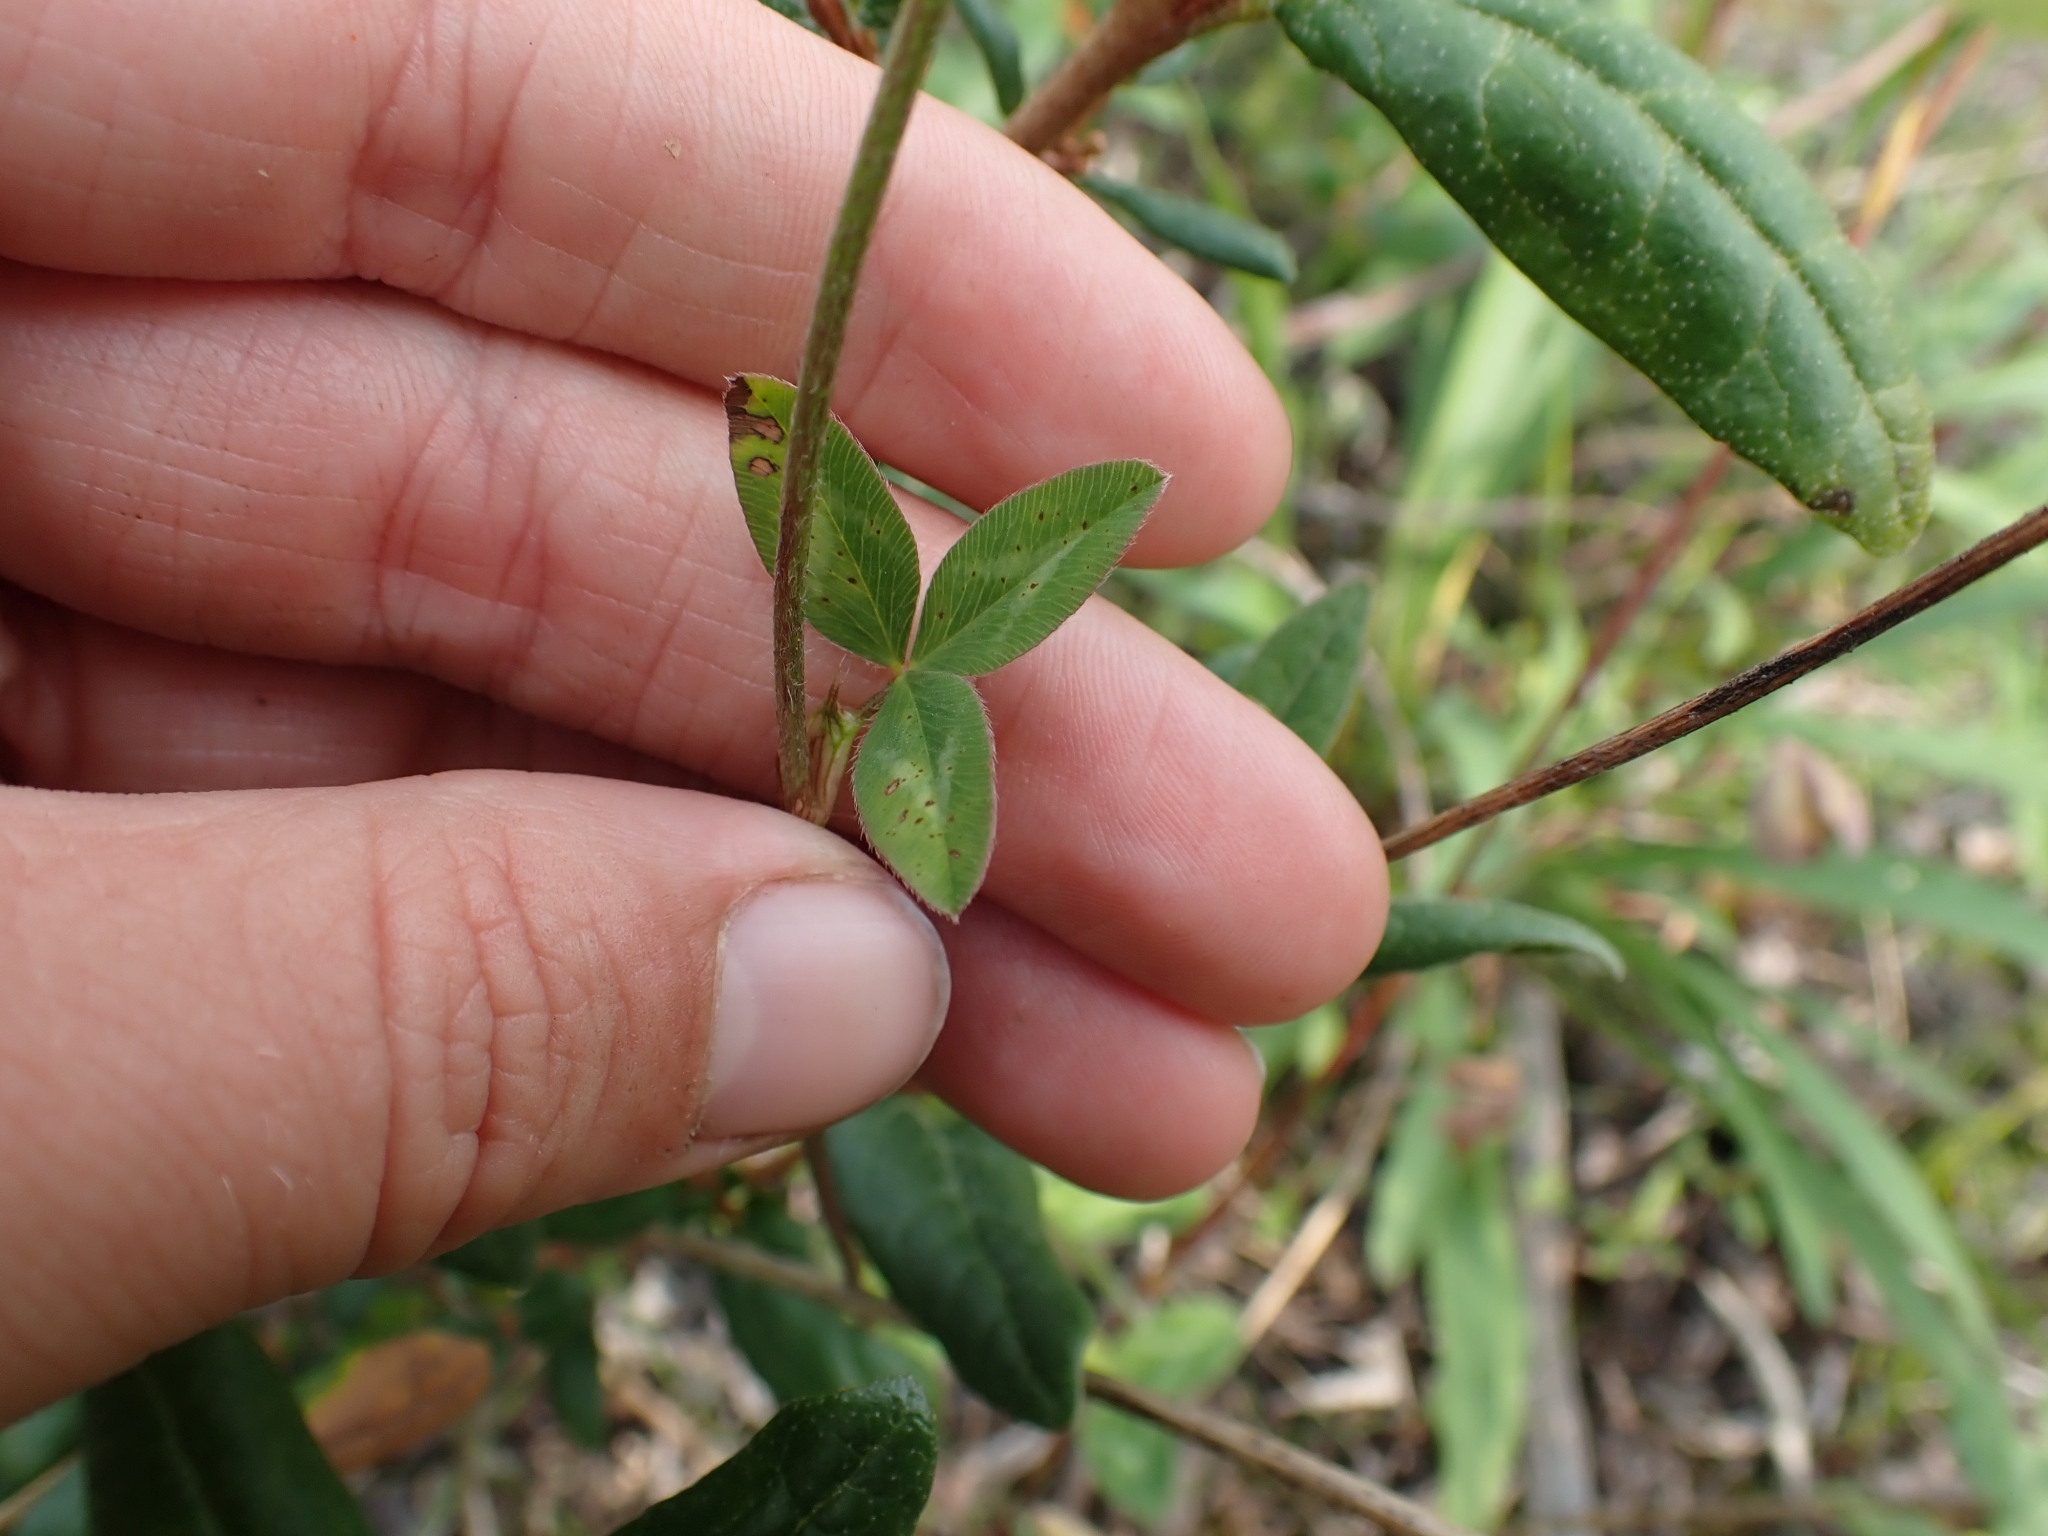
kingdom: Plantae
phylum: Tracheophyta
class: Magnoliopsida
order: Fabales
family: Fabaceae
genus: Trifolium
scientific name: Trifolium pratense
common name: Red clover
